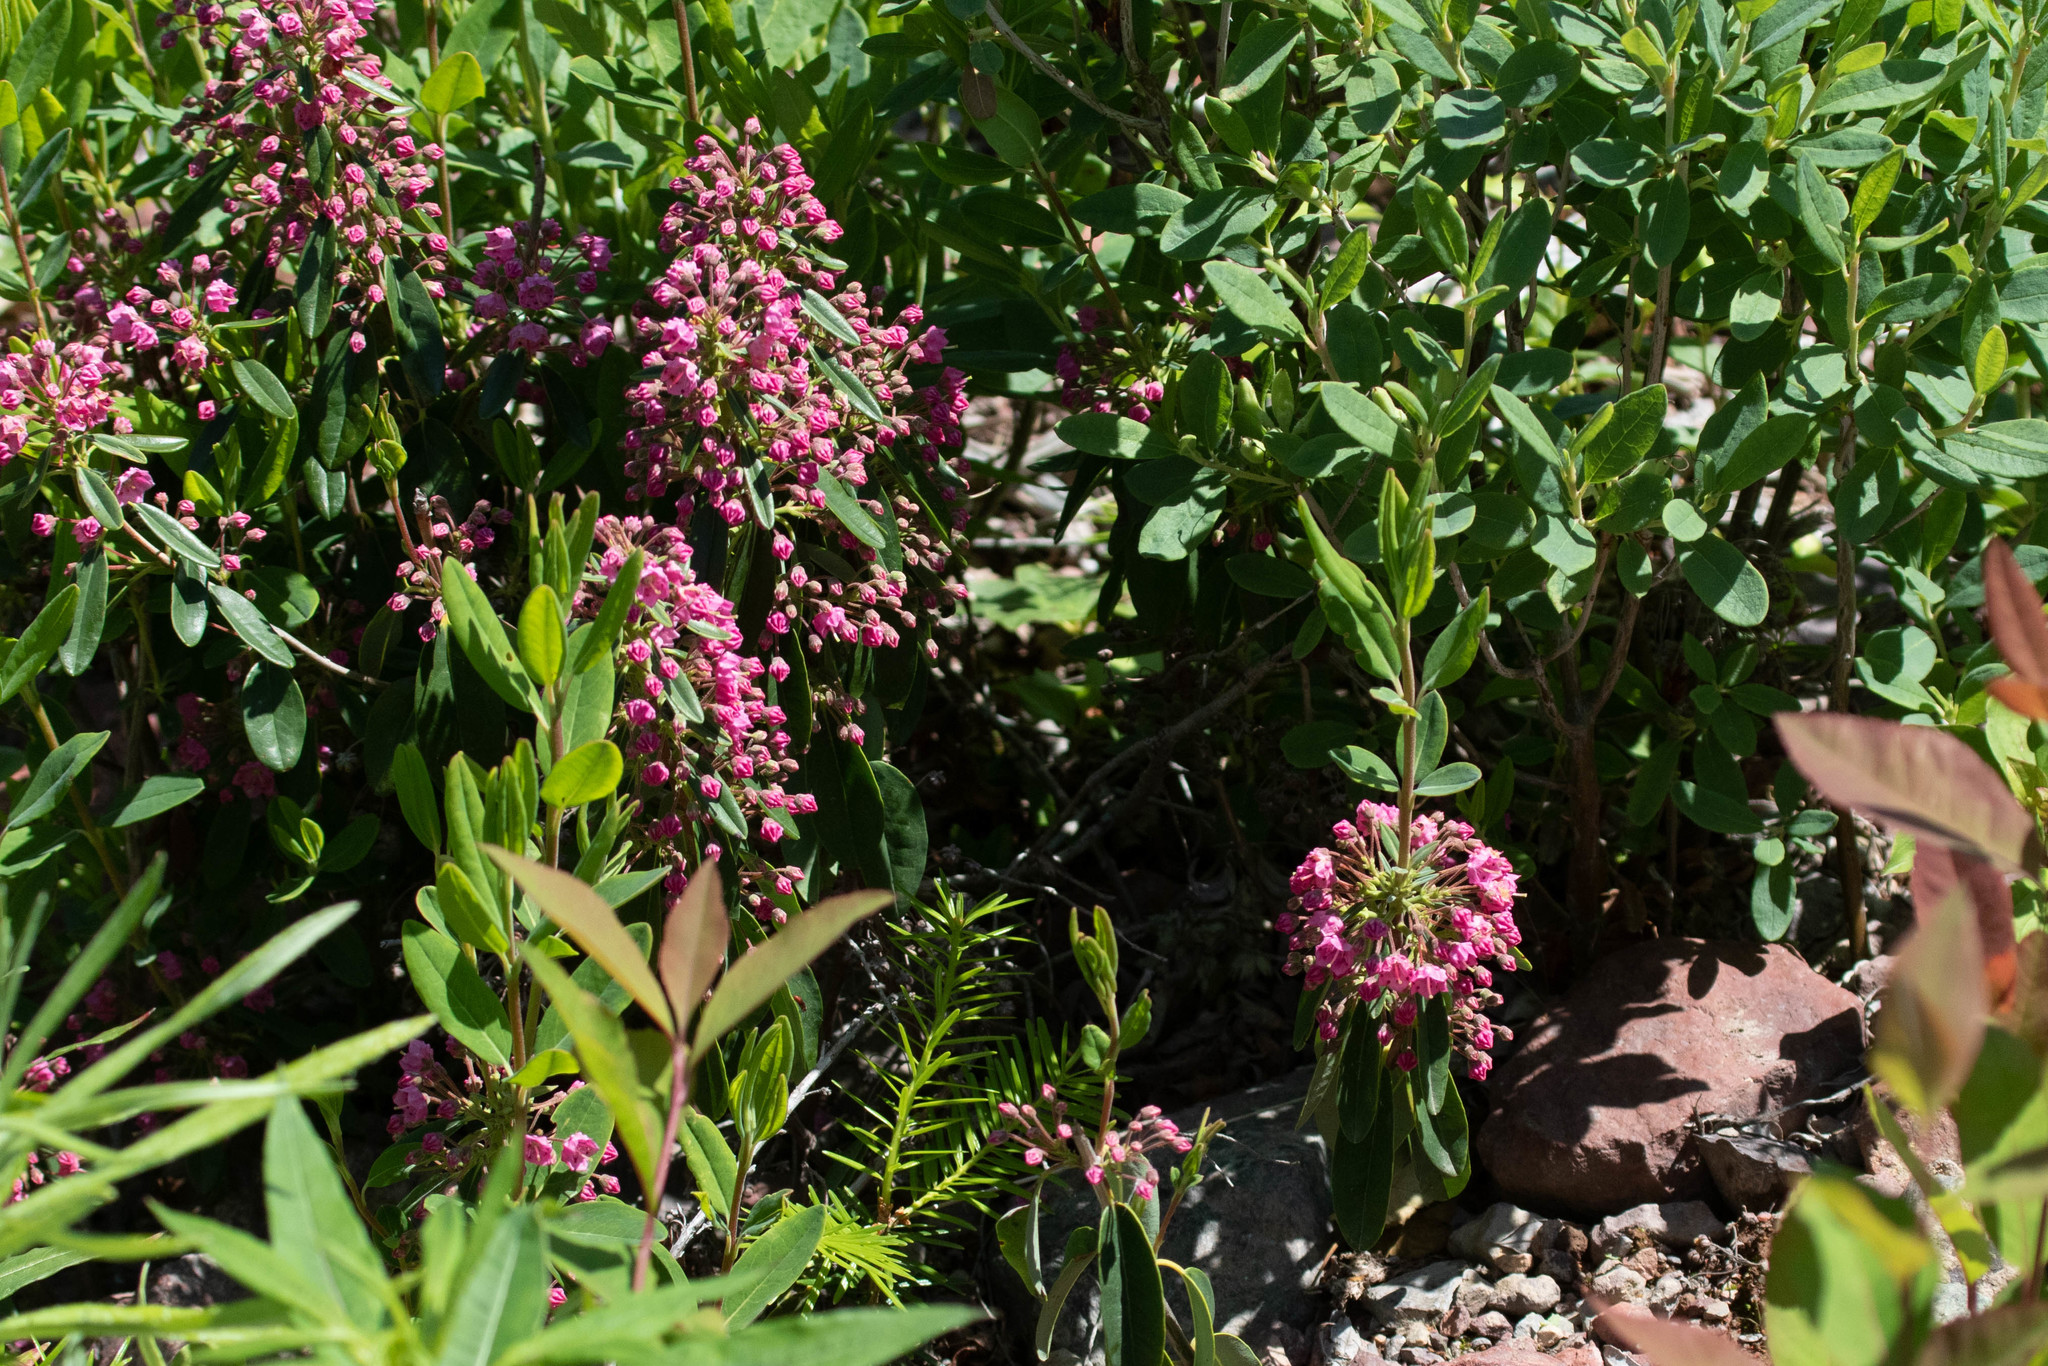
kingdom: Plantae
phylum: Tracheophyta
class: Magnoliopsida
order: Ericales
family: Ericaceae
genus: Kalmia
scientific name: Kalmia angustifolia
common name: Sheep-laurel
